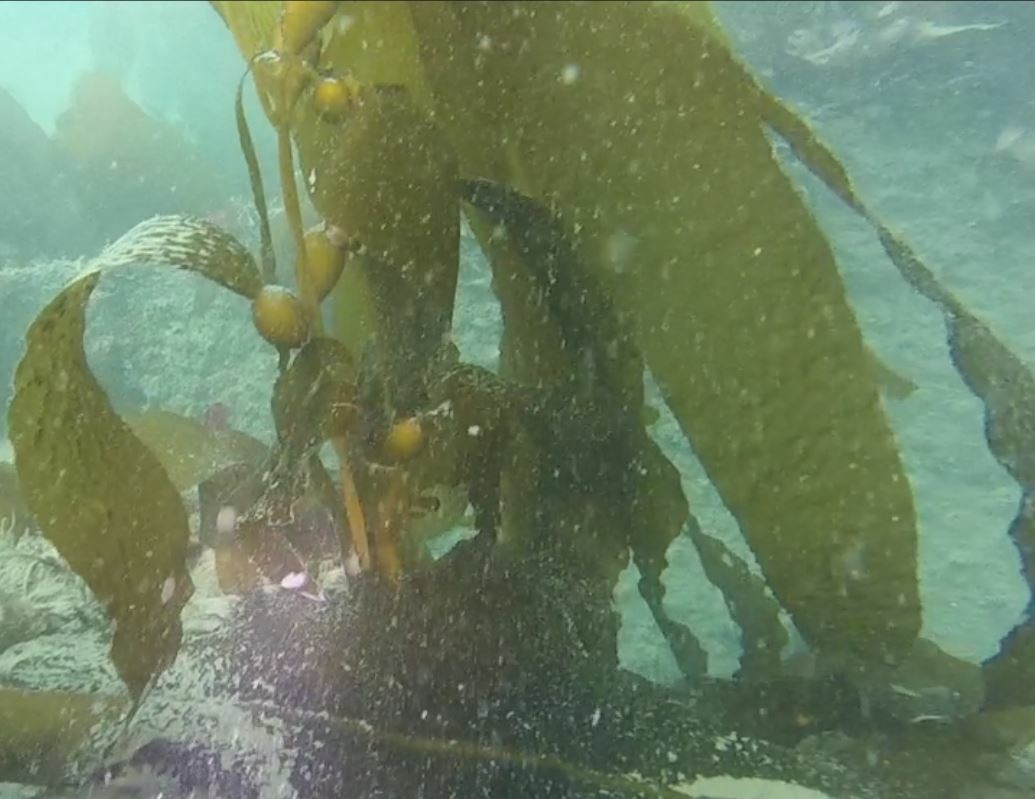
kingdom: Chromista
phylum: Ochrophyta
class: Phaeophyceae
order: Laminariales
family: Laminariaceae
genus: Macrocystis
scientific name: Macrocystis pyrifera
